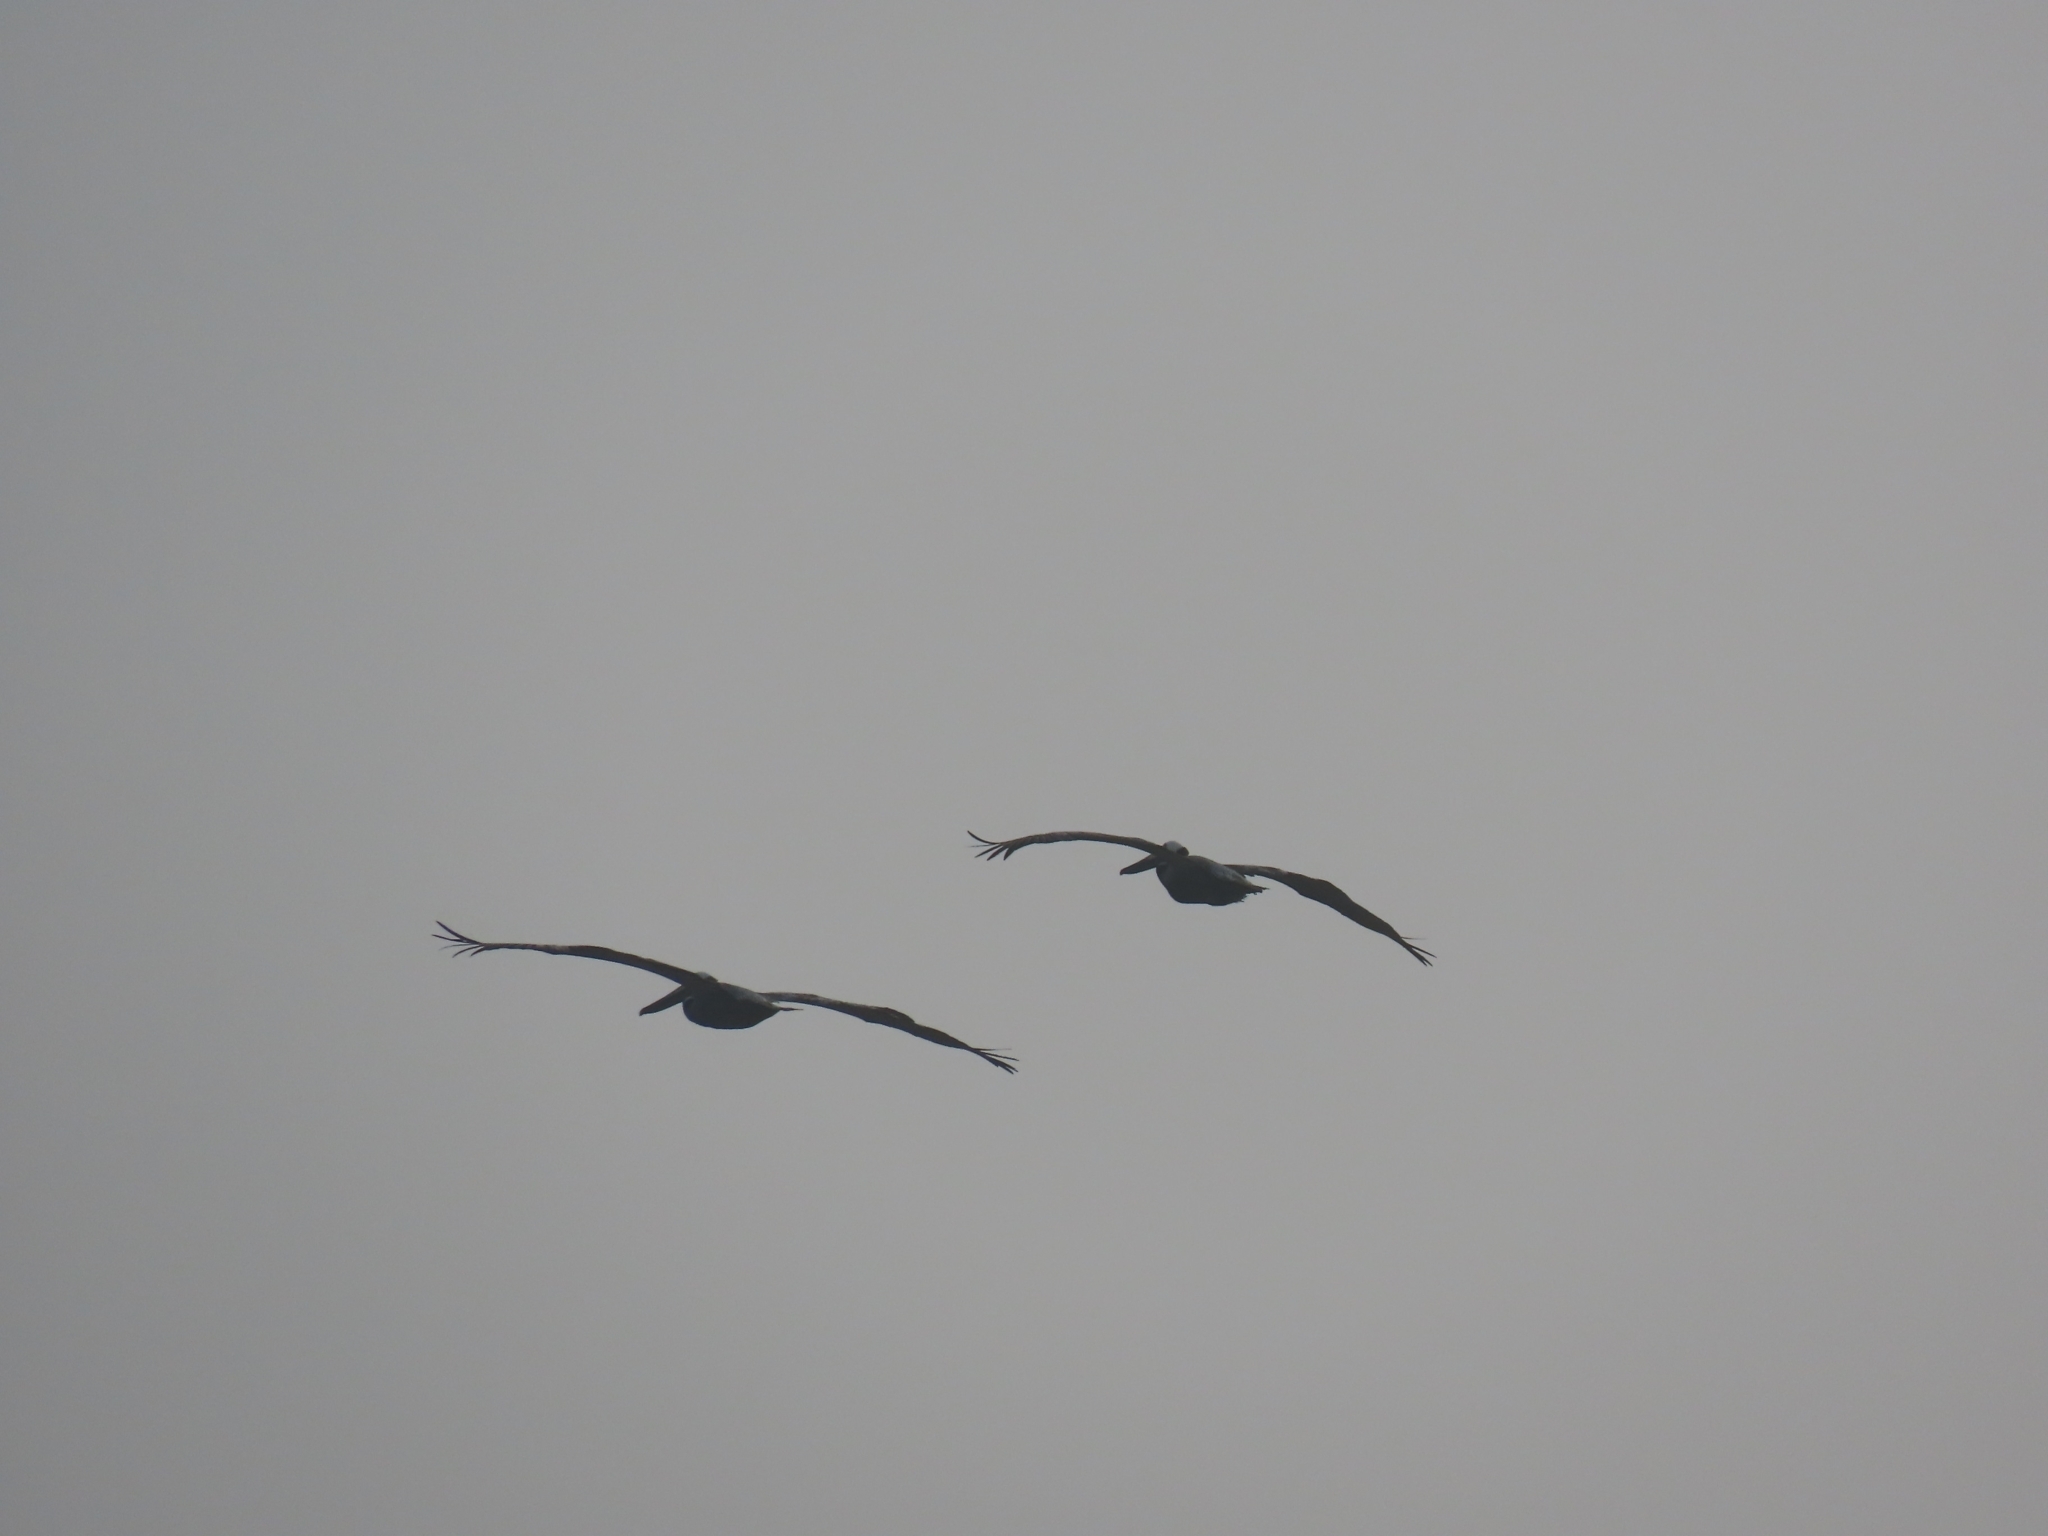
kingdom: Animalia
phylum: Chordata
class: Aves
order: Pelecaniformes
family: Pelecanidae
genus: Pelecanus
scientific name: Pelecanus occidentalis
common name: Brown pelican
